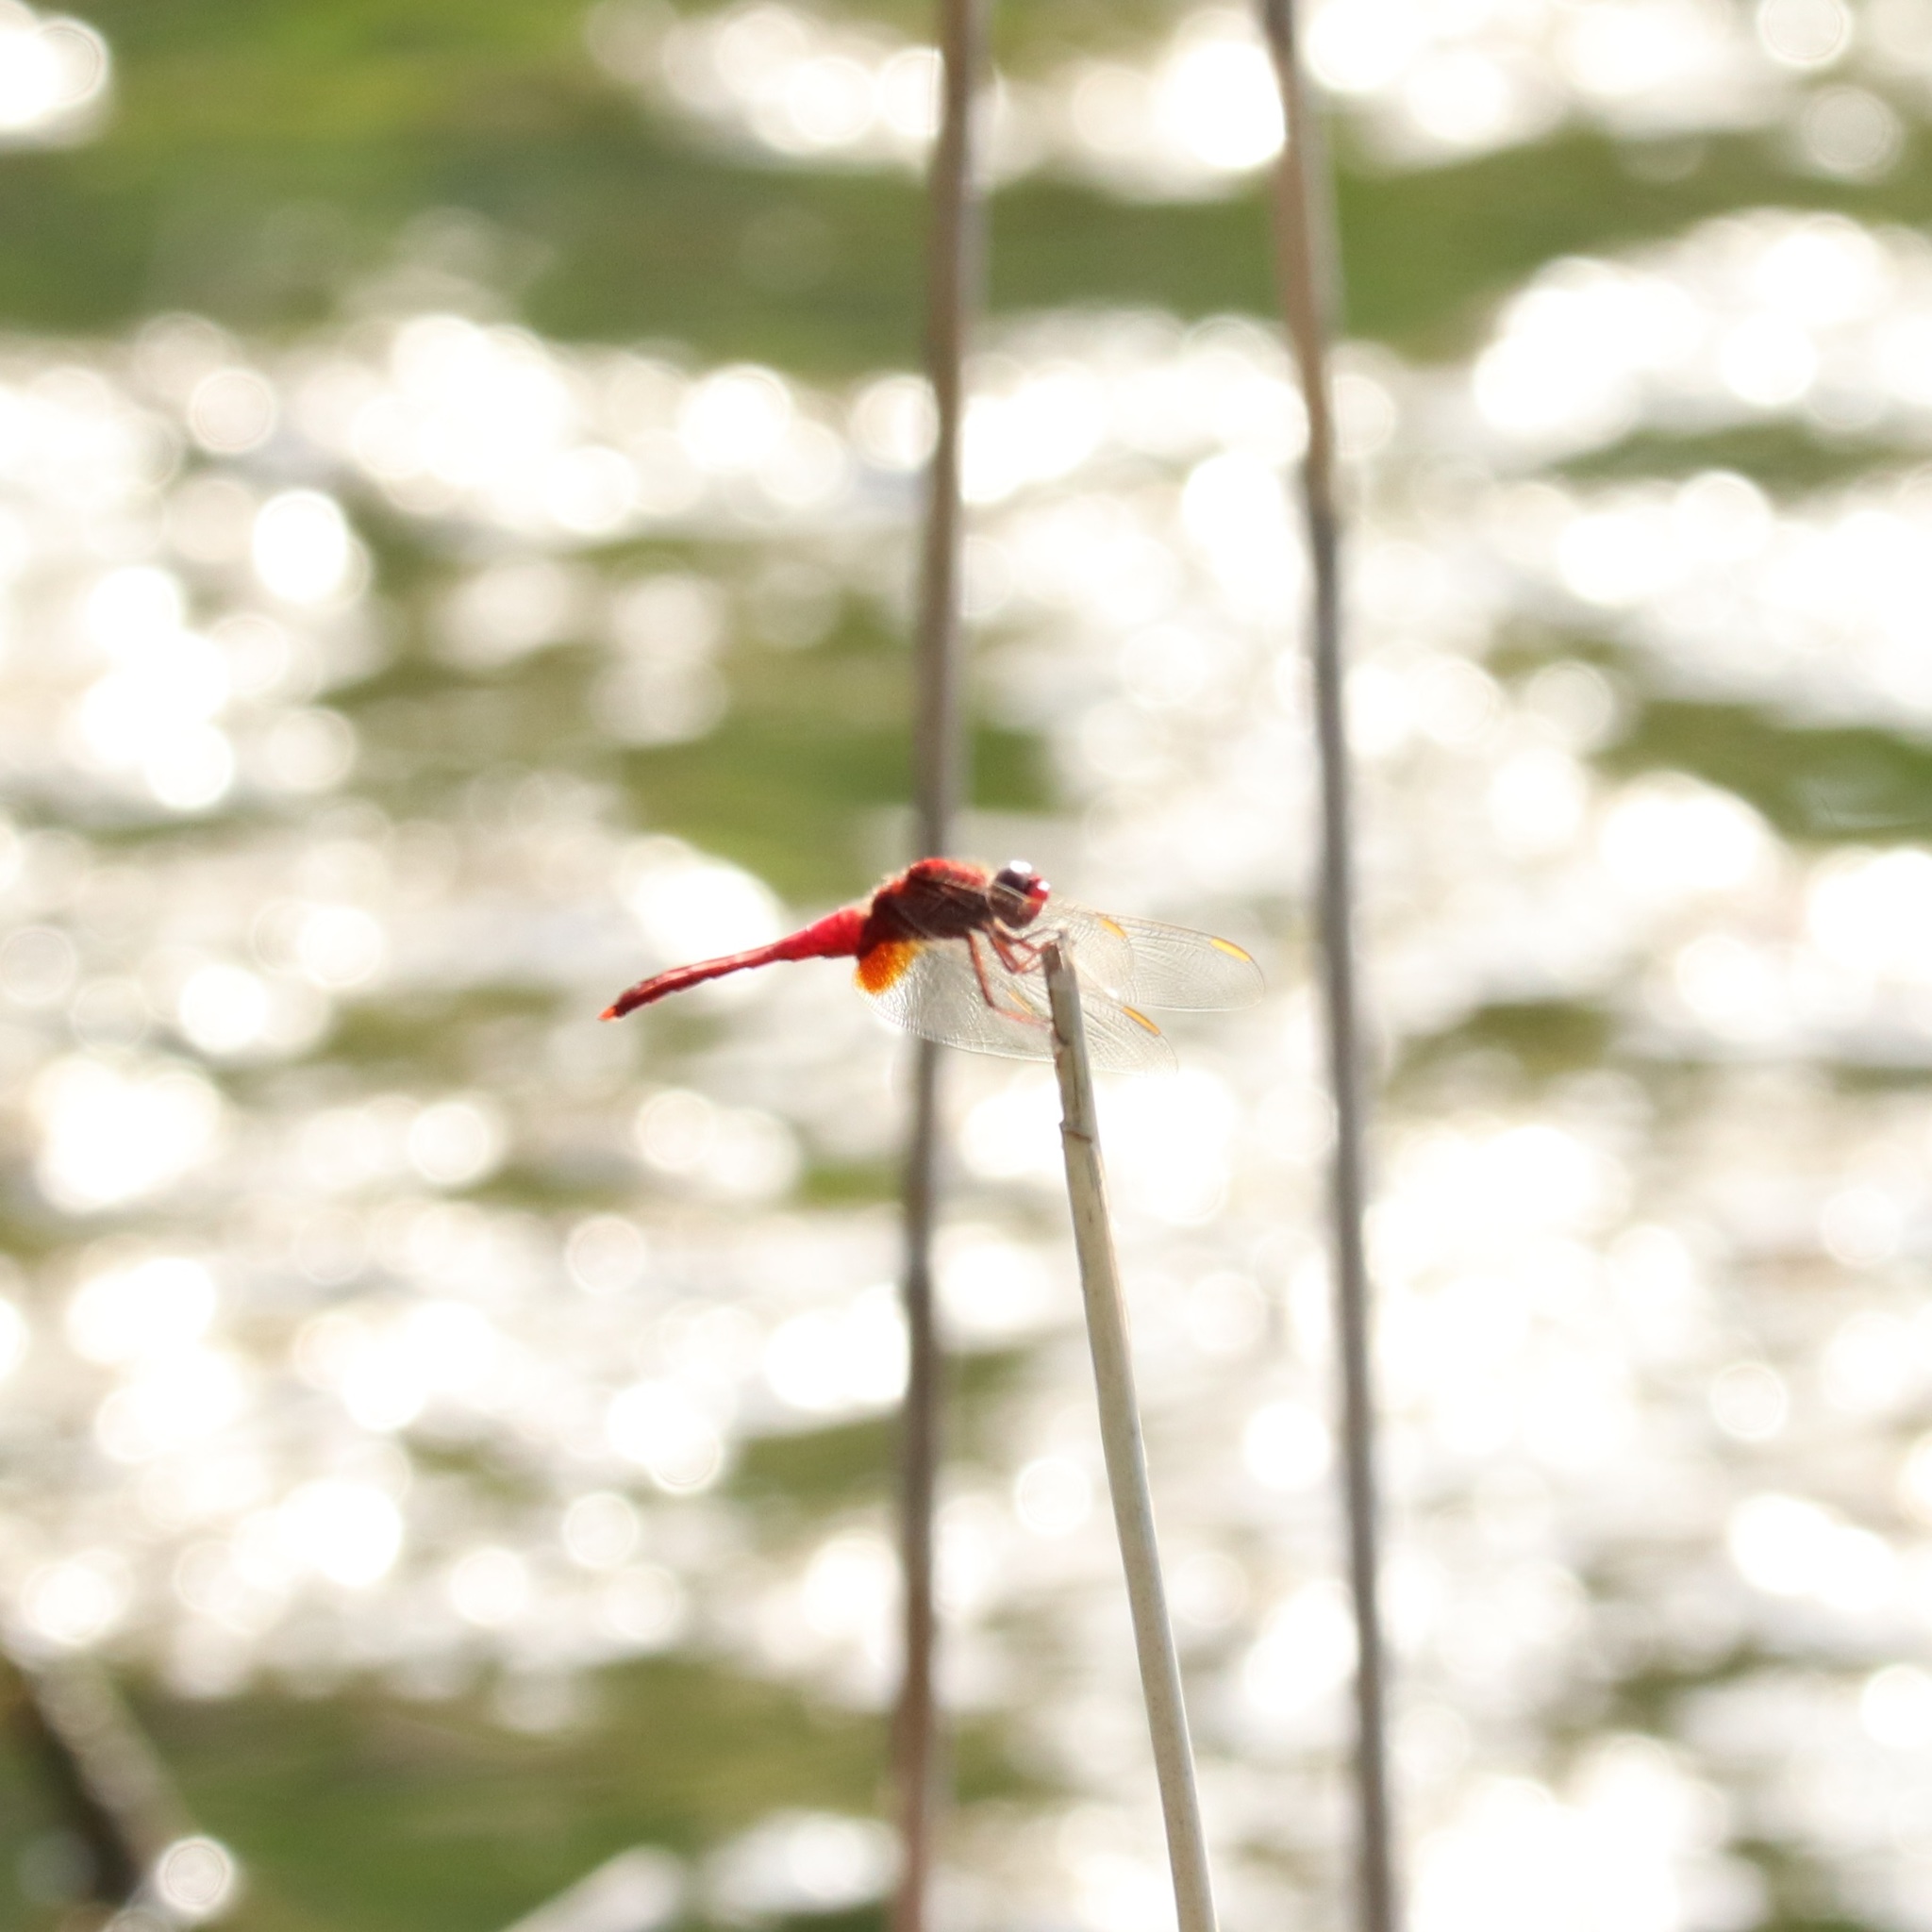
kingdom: Animalia
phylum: Arthropoda
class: Insecta
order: Odonata
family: Libellulidae
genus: Crocothemis
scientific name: Crocothemis servilia
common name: Scarlet skimmer
